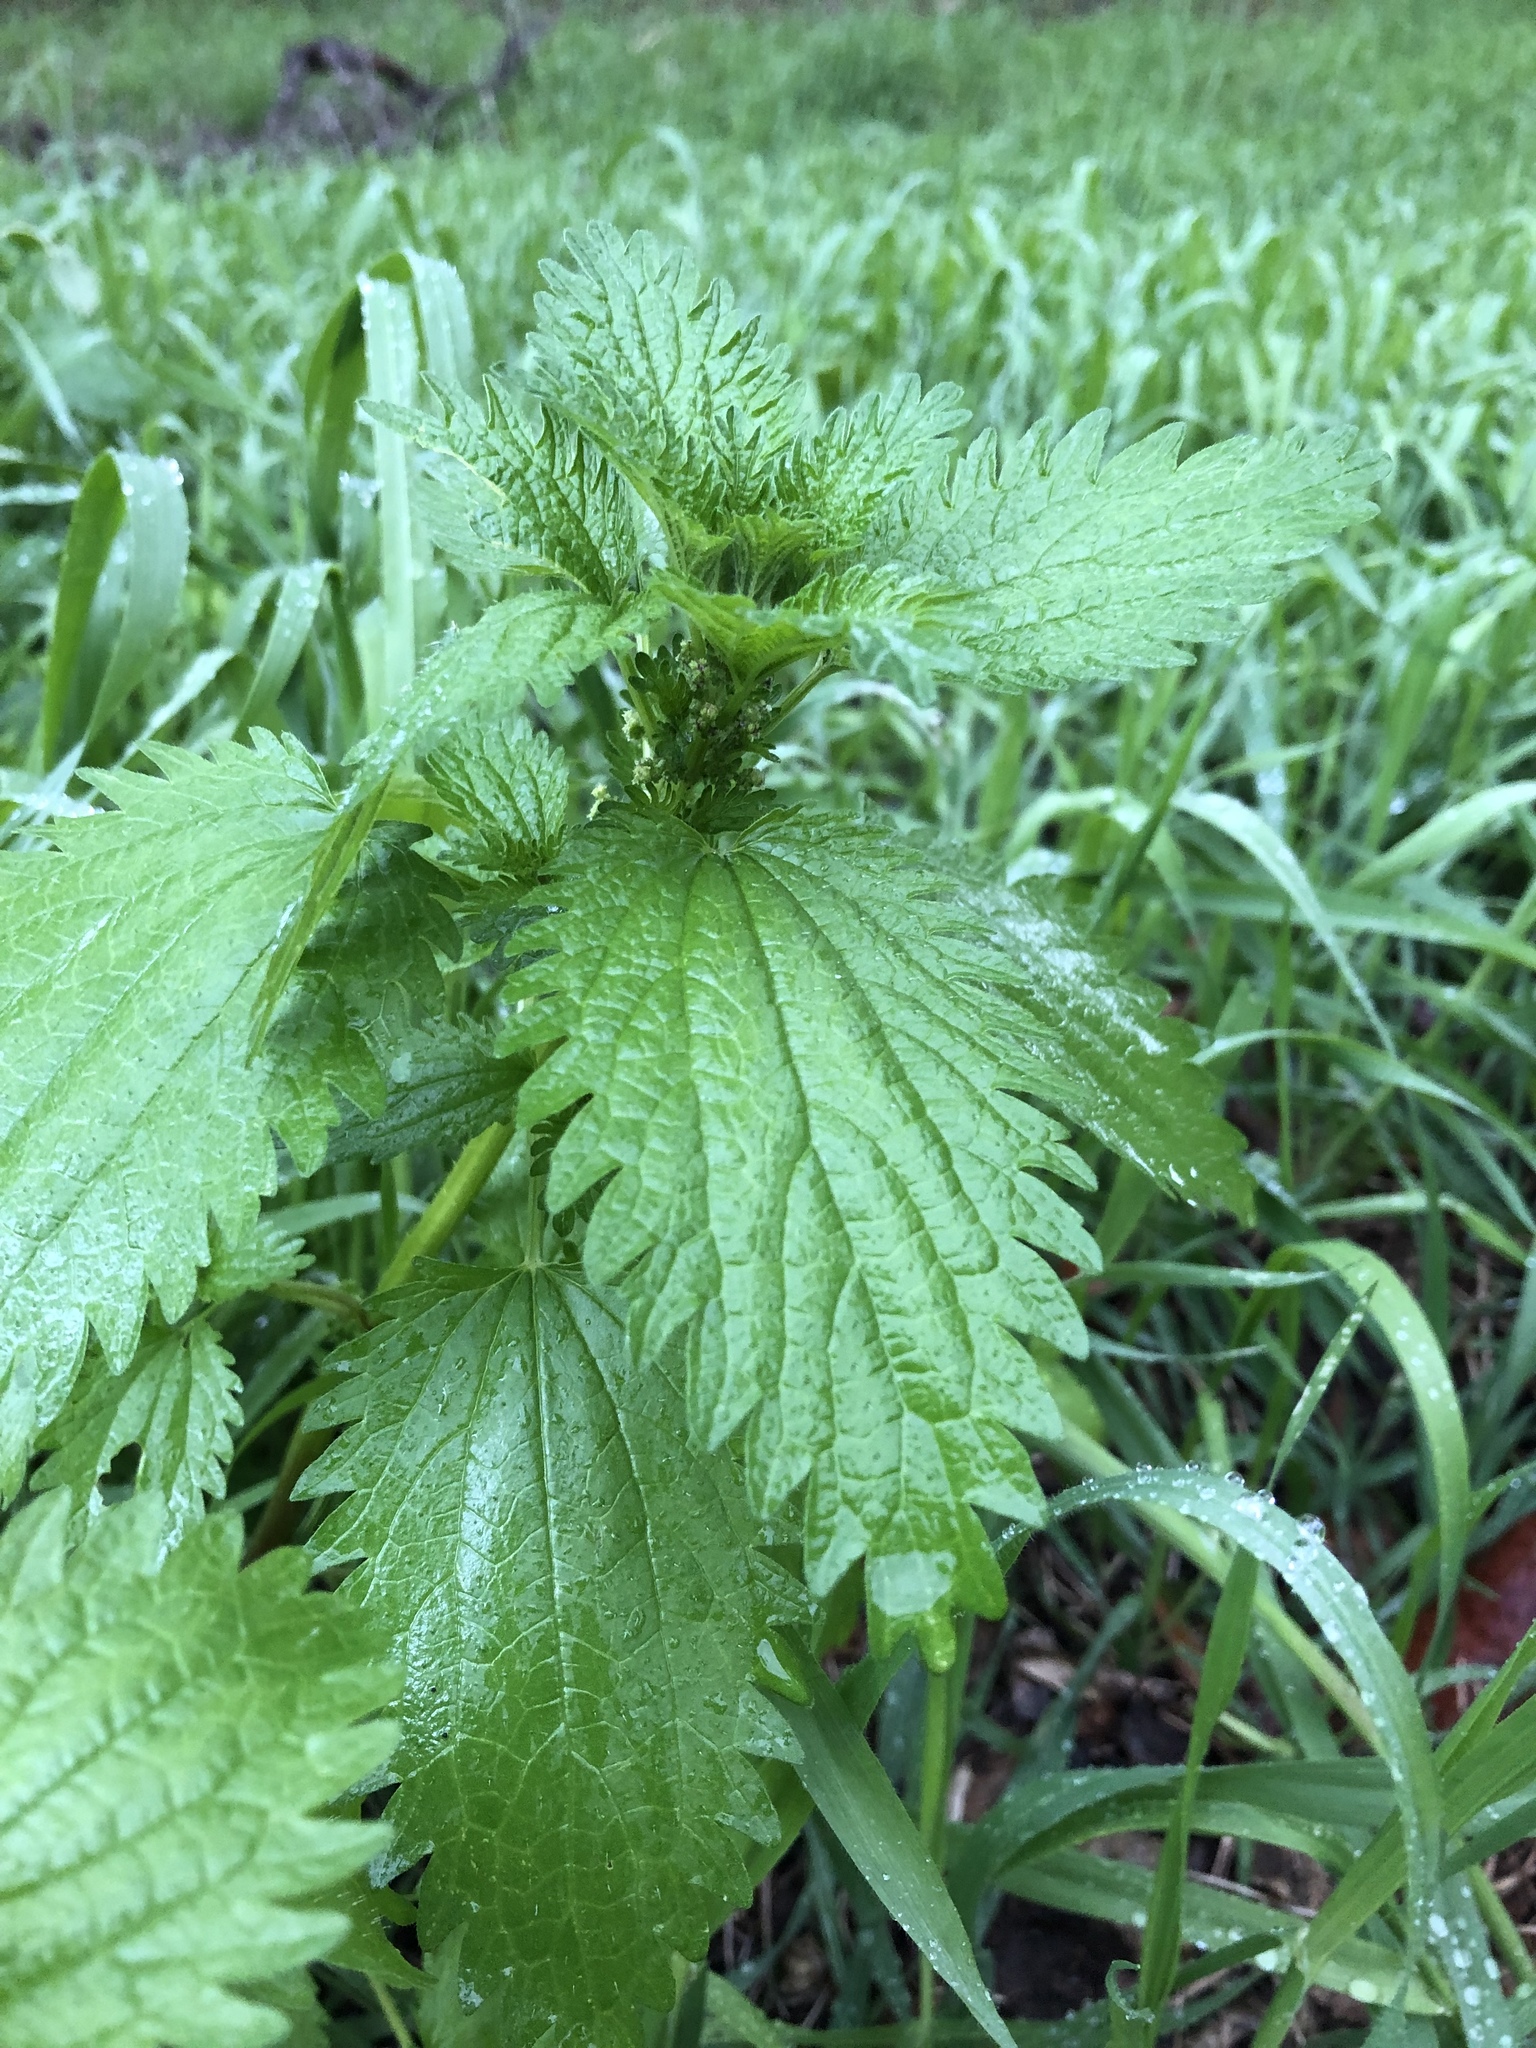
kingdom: Plantae
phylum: Tracheophyta
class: Magnoliopsida
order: Rosales
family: Urticaceae
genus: Urtica
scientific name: Urtica urens
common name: Dwarf nettle
